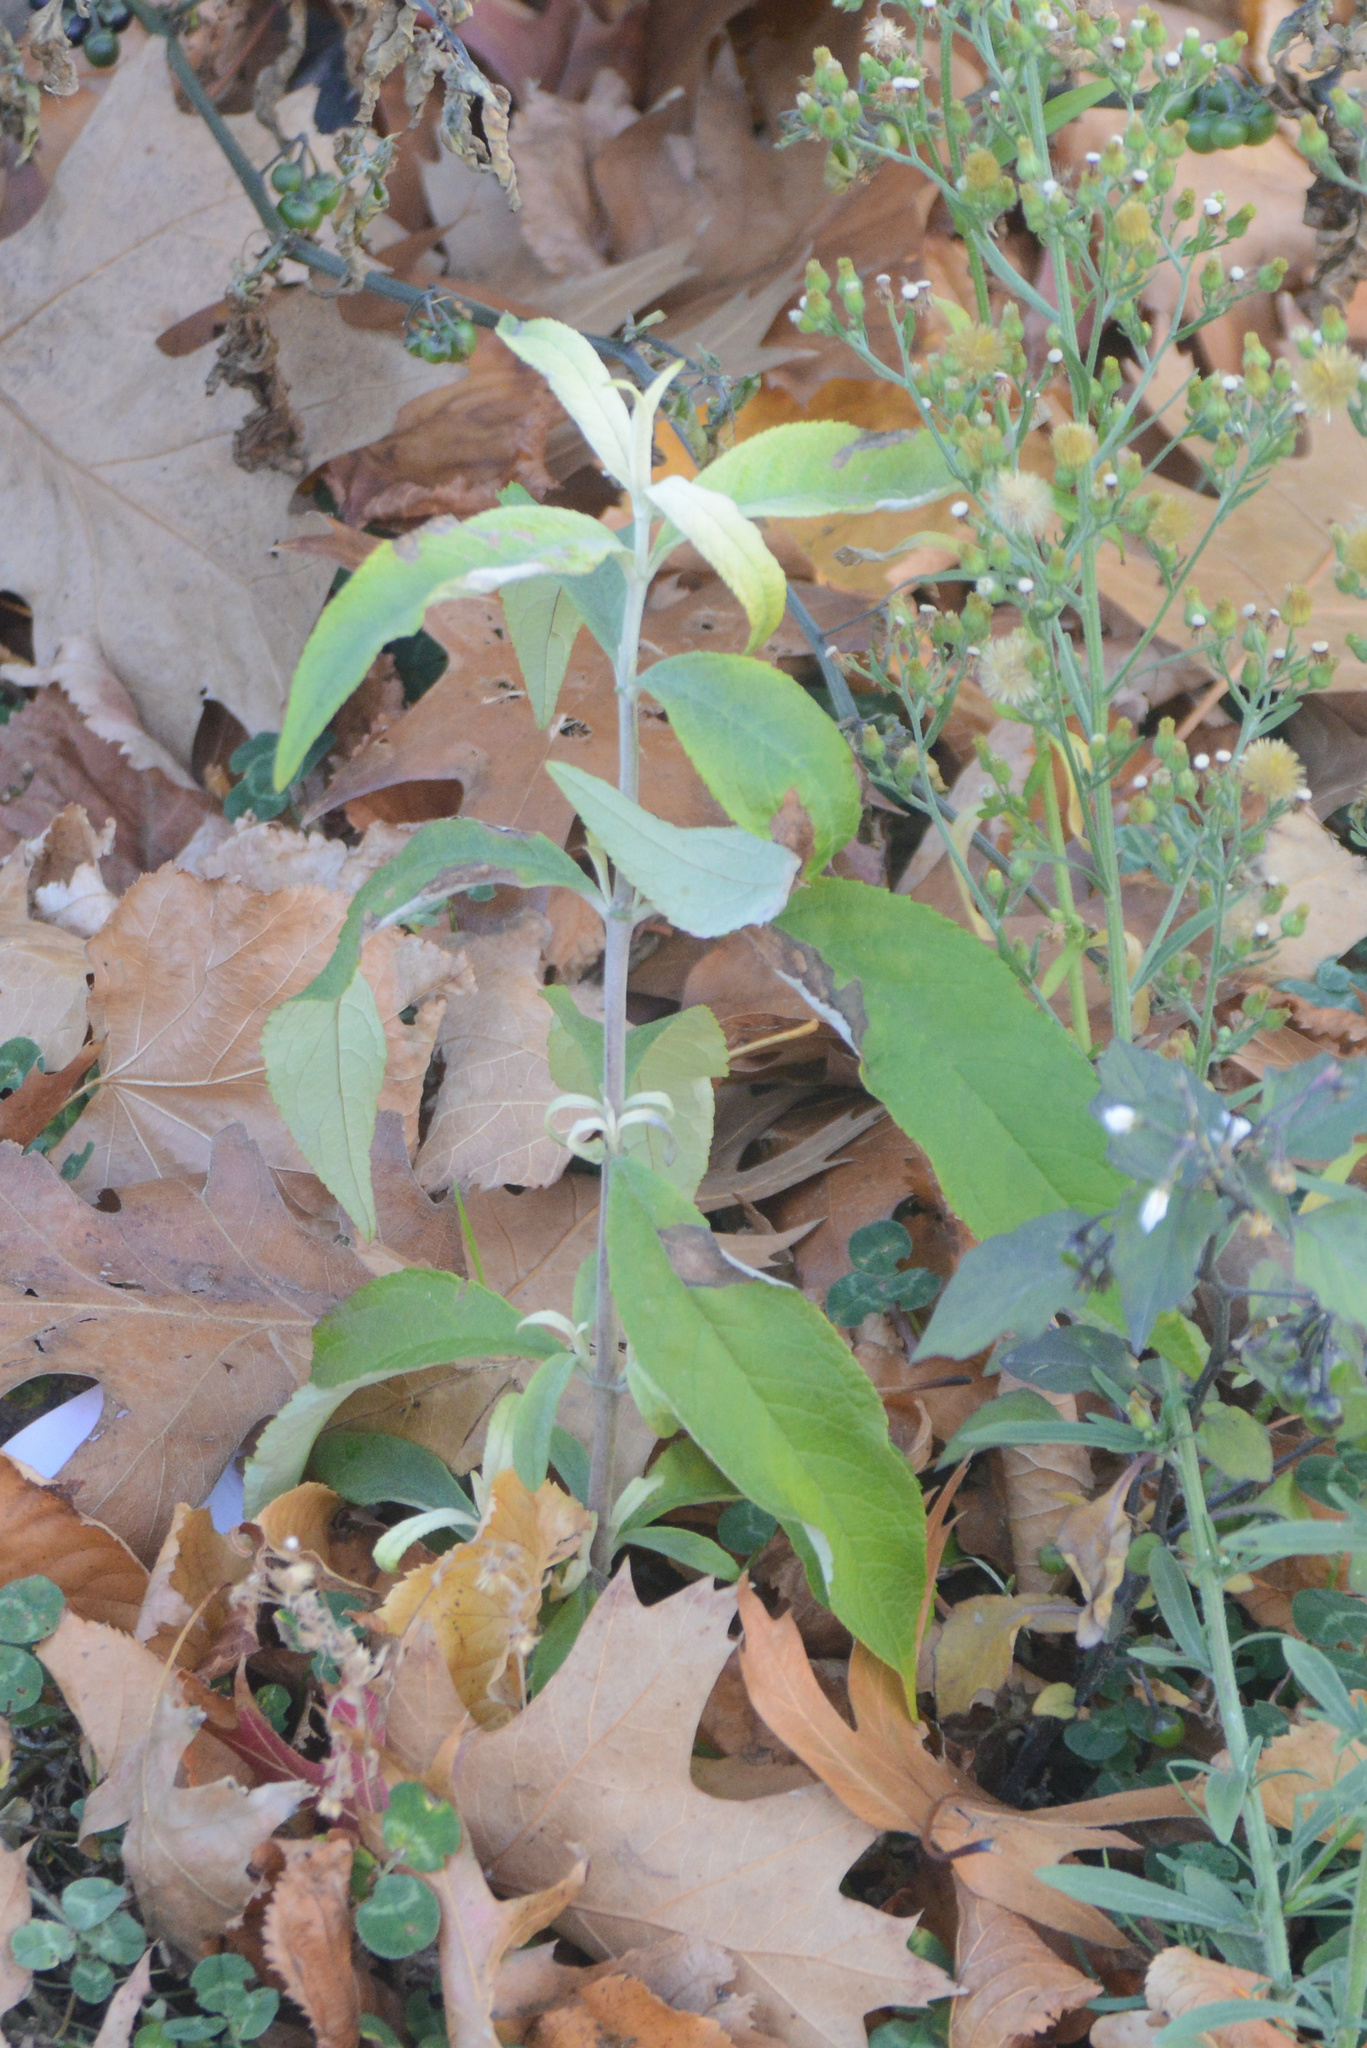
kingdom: Plantae
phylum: Tracheophyta
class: Magnoliopsida
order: Lamiales
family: Scrophulariaceae
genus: Buddleja
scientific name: Buddleja davidii
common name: Butterfly-bush
